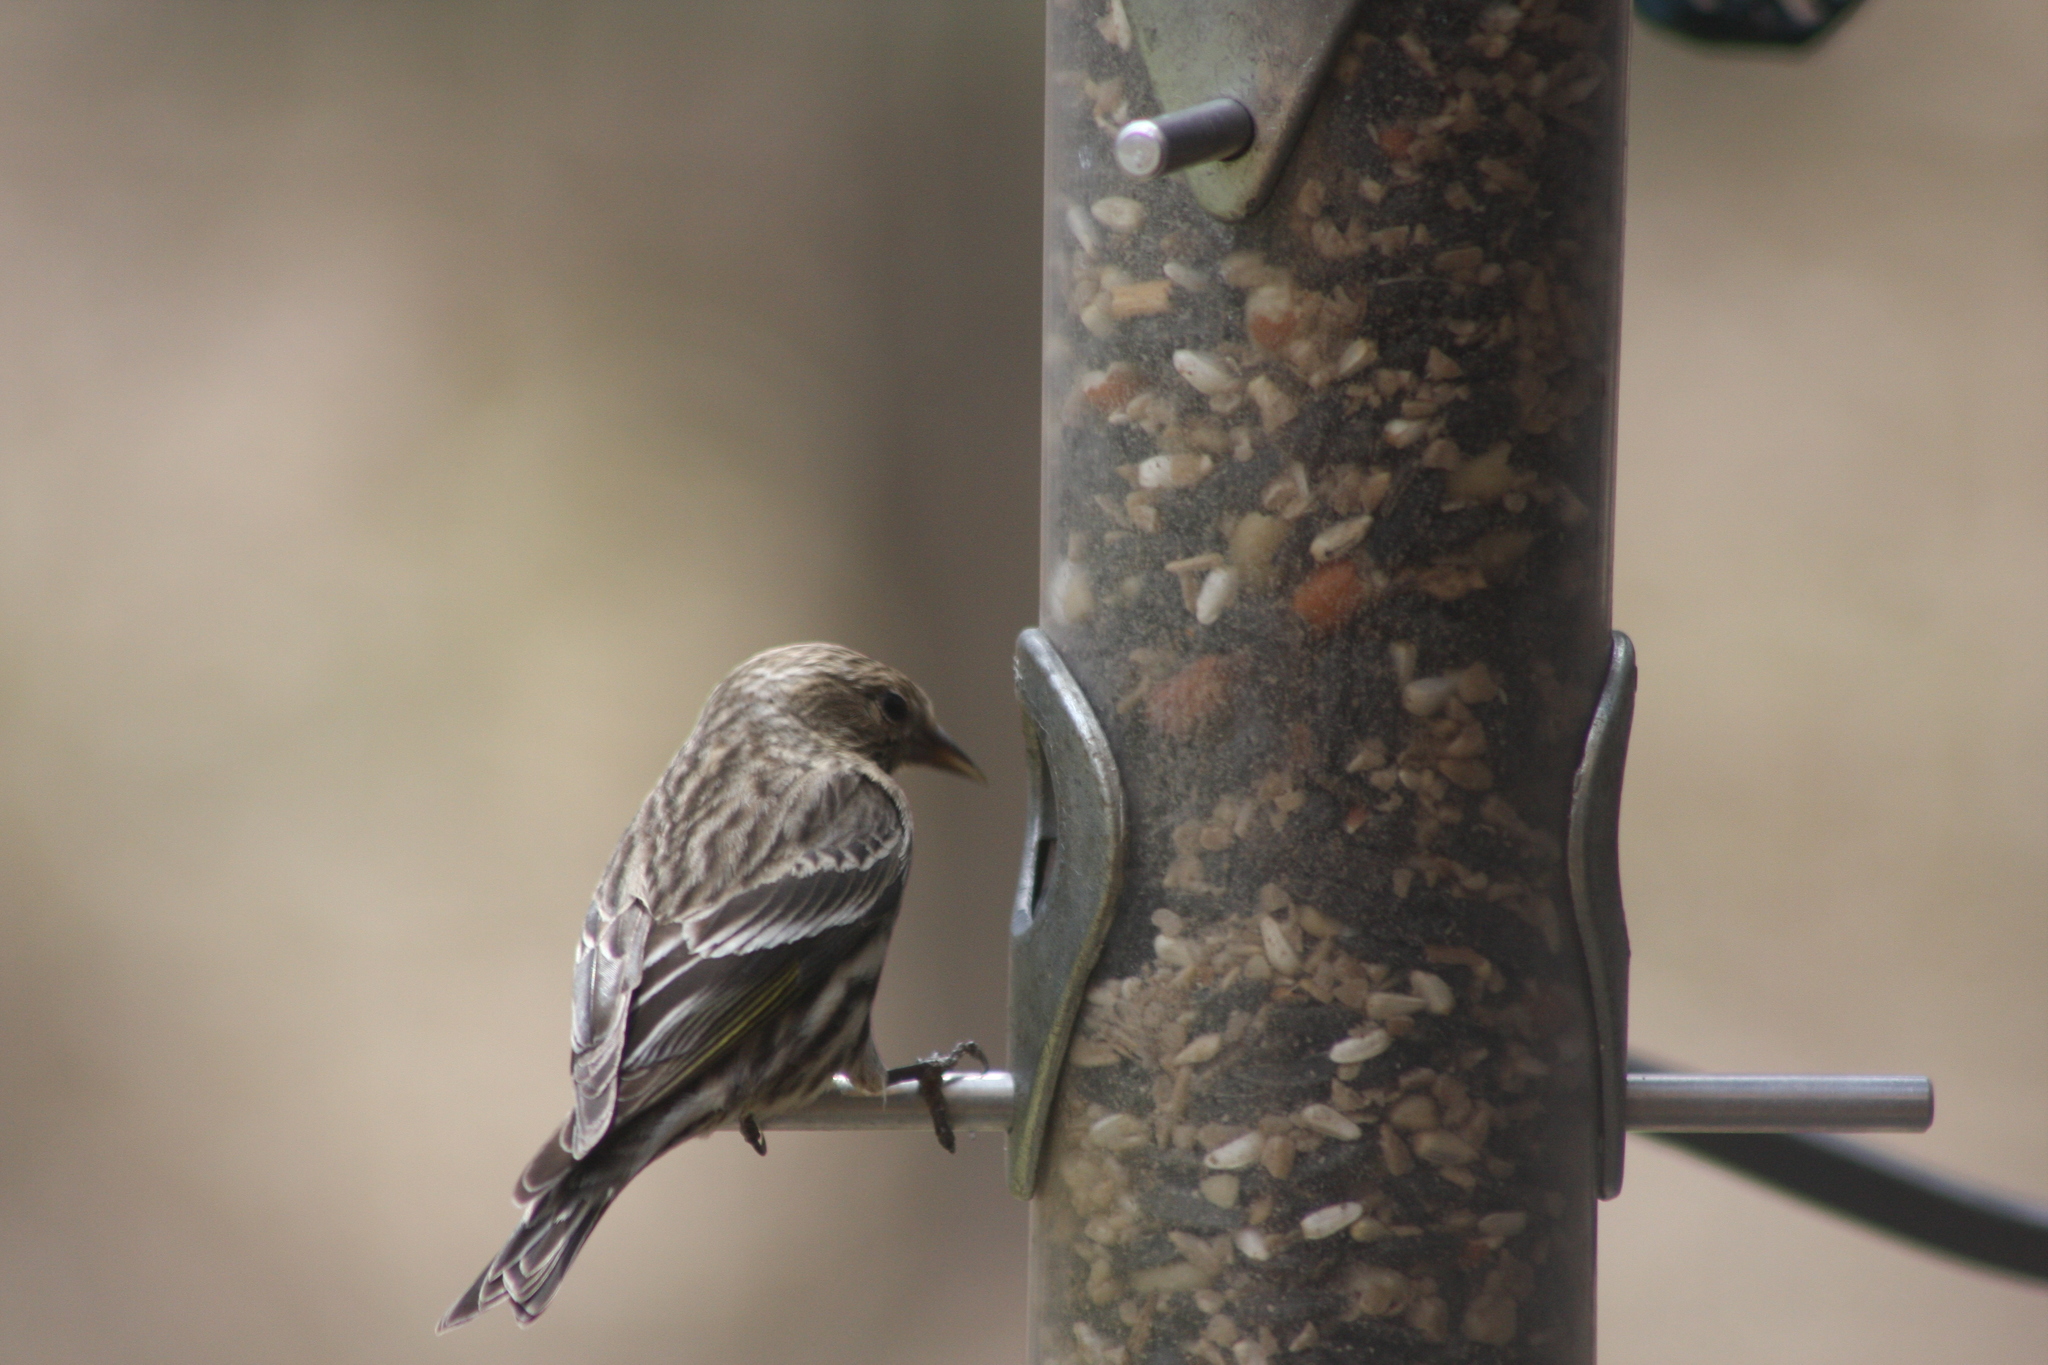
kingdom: Animalia
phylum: Chordata
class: Aves
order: Passeriformes
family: Fringillidae
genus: Spinus
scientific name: Spinus pinus
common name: Pine siskin
